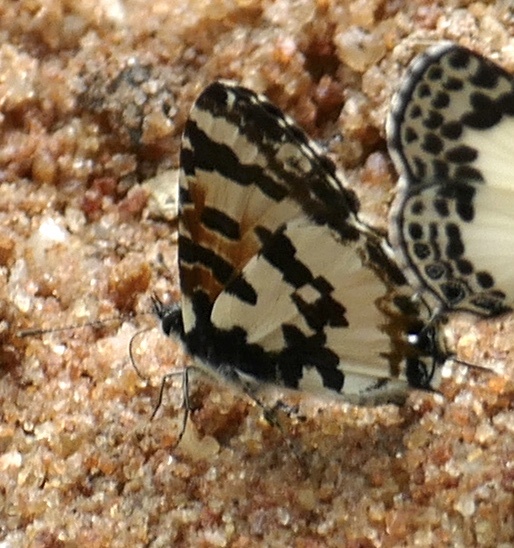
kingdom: Animalia
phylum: Arthropoda
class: Insecta
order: Lepidoptera
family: Lycaenidae
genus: Uranothauma
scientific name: Uranothauma falkensteini
